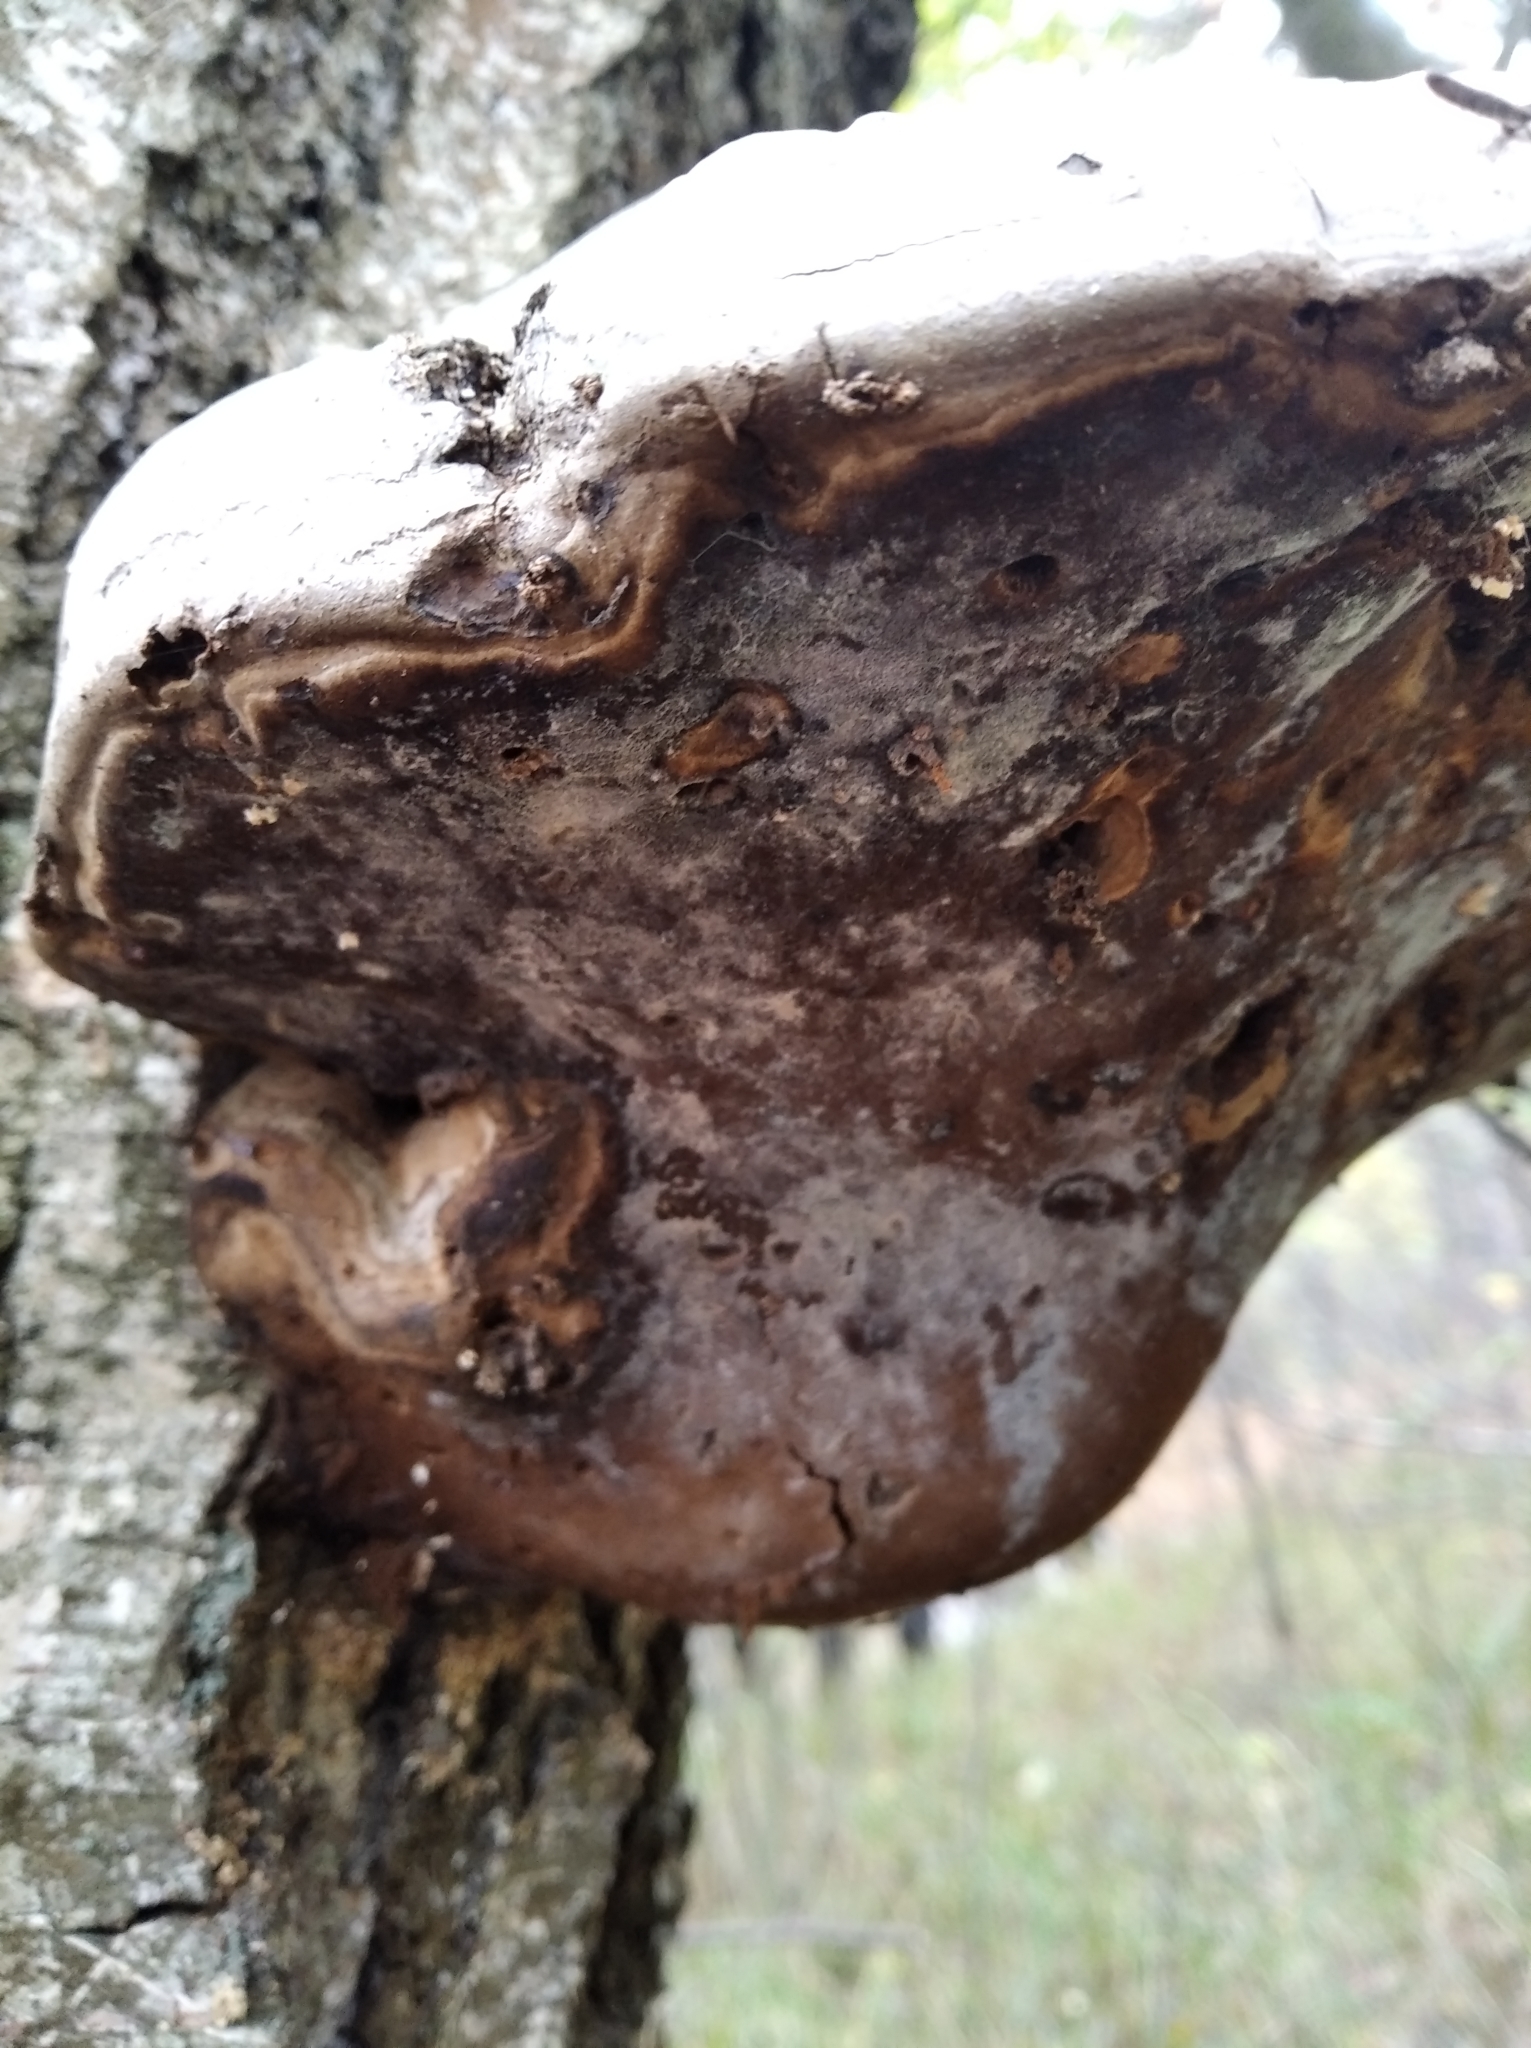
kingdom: Fungi
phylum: Basidiomycota
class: Agaricomycetes
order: Polyporales
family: Polyporaceae
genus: Fomes
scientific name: Fomes fomentarius
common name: Hoof fungus
